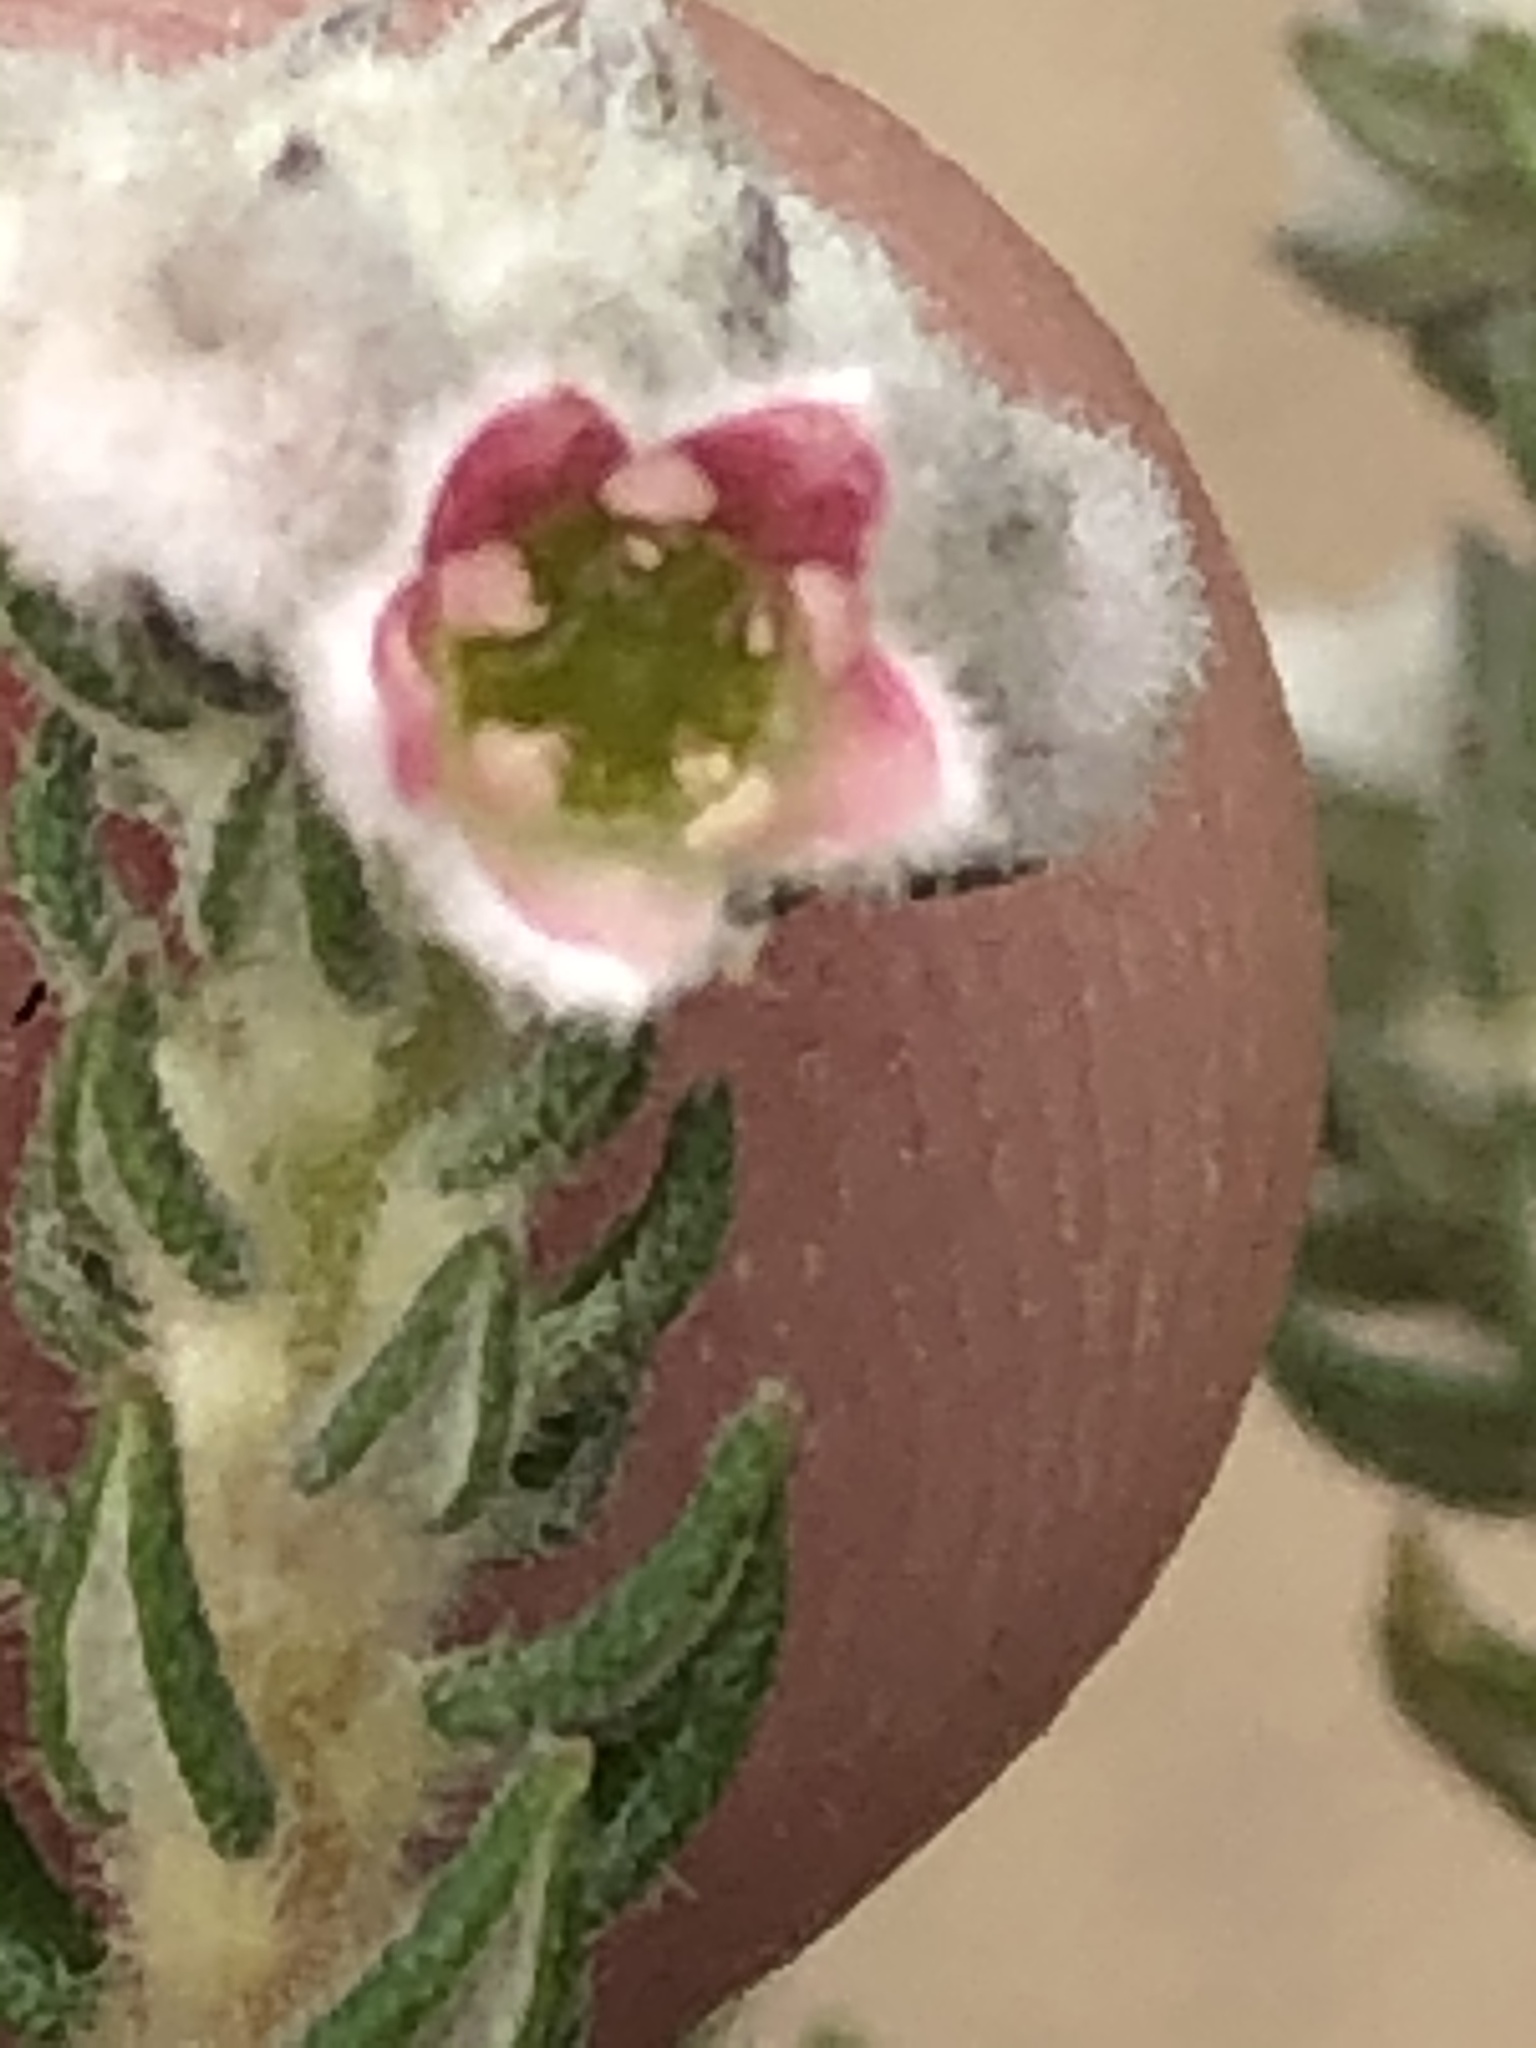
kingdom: Plantae
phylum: Tracheophyta
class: Magnoliopsida
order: Rosales
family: Rhamnaceae
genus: Phylica
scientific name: Phylica purpurea
